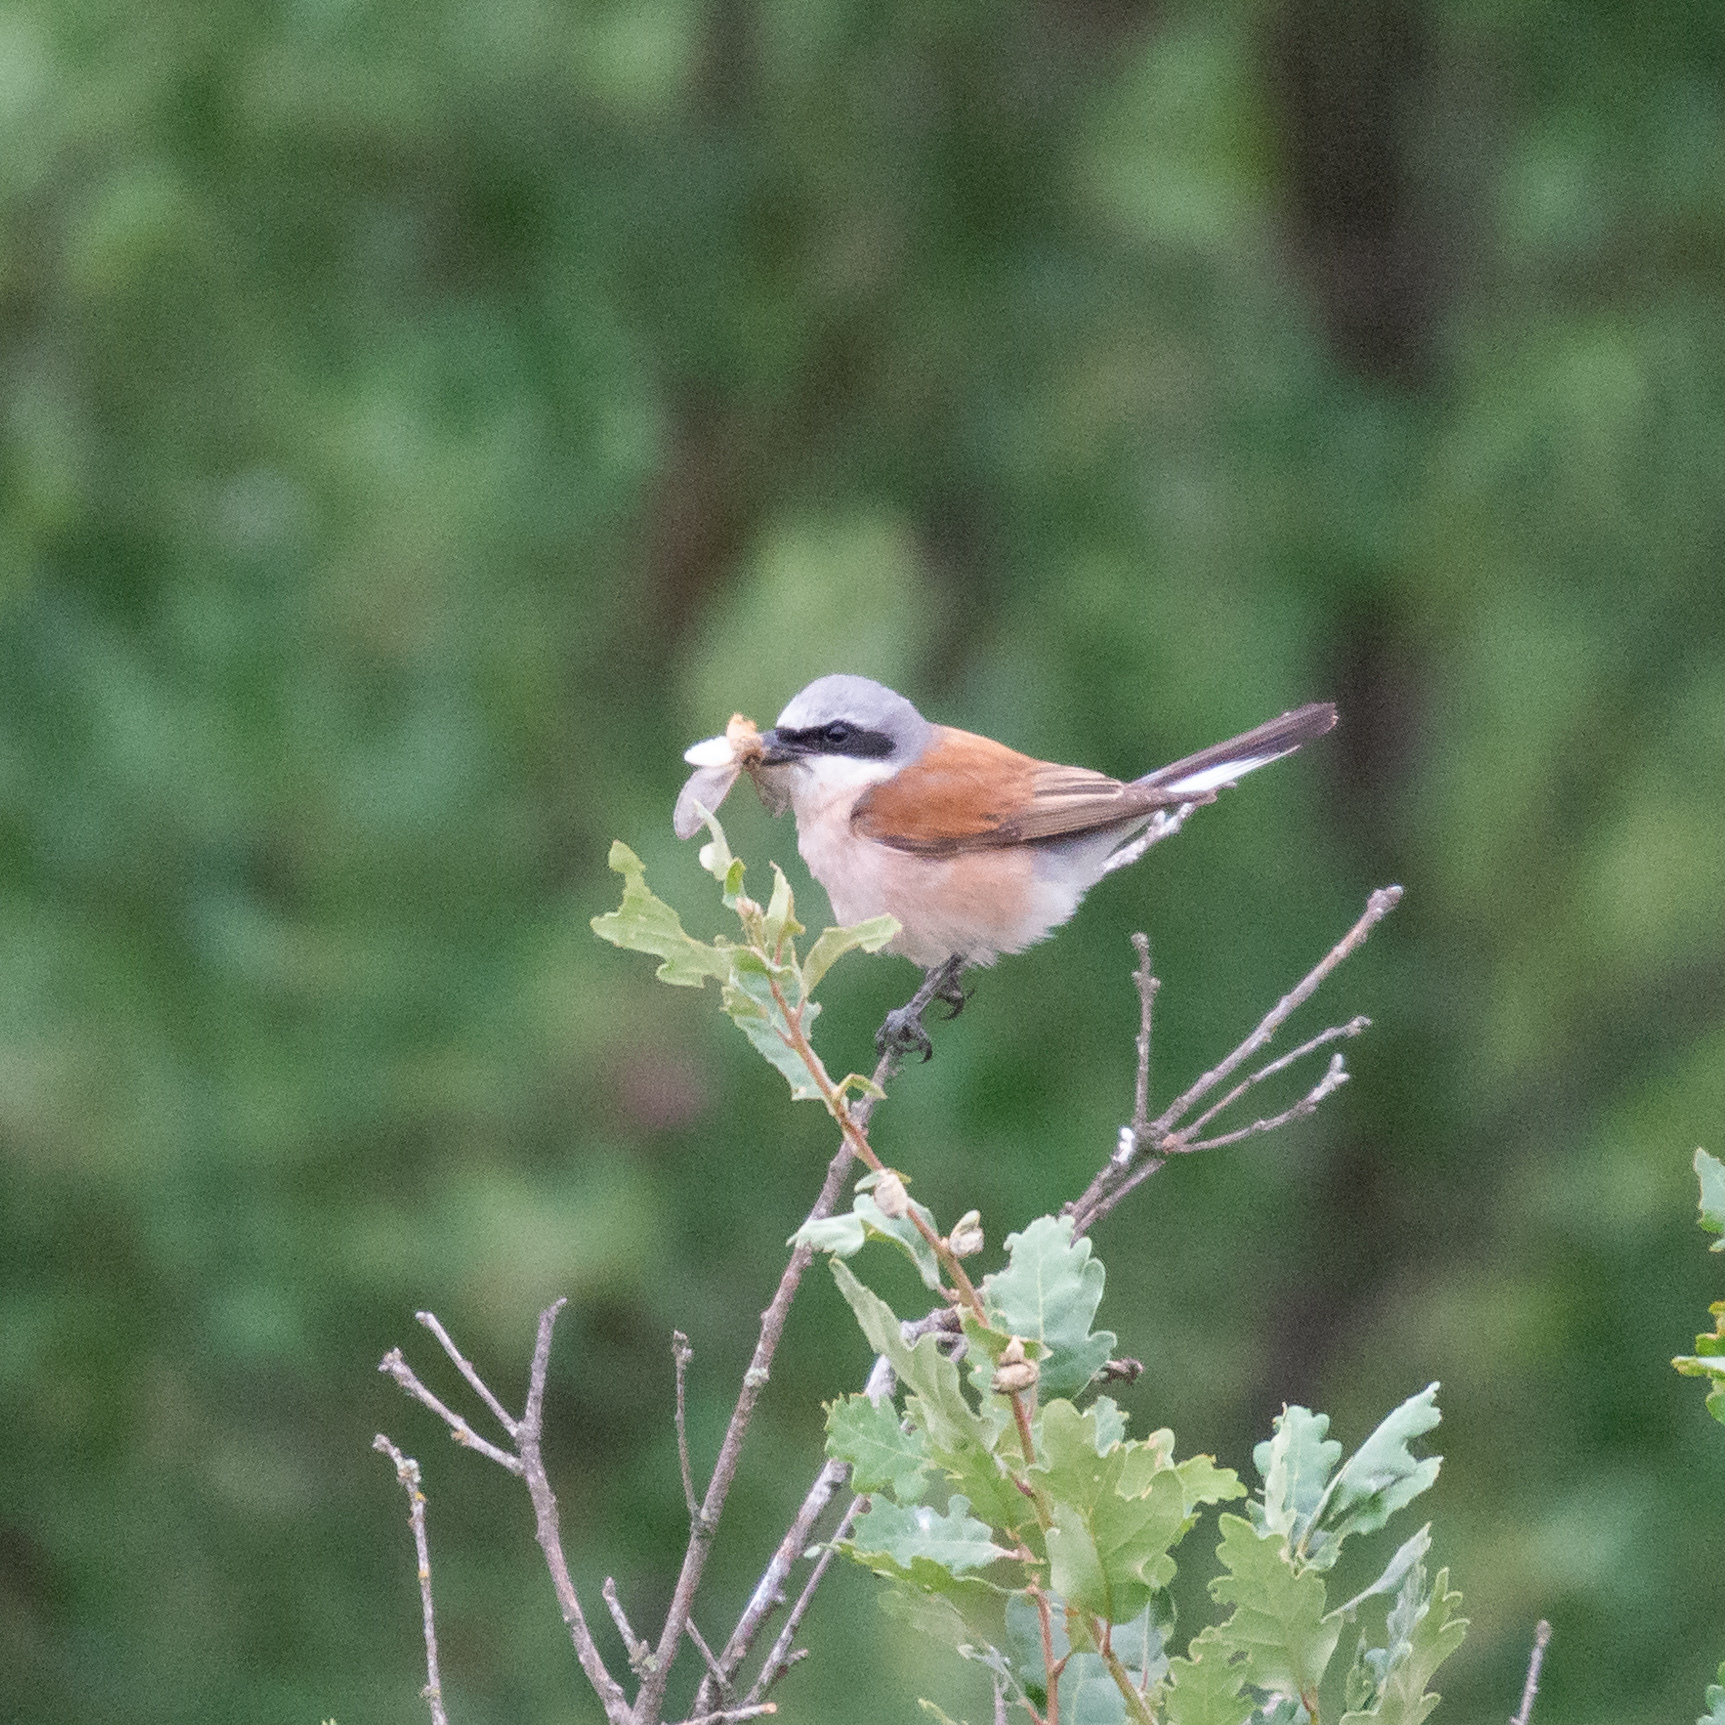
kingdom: Animalia
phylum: Chordata
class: Aves
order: Passeriformes
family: Laniidae
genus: Lanius
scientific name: Lanius collurio
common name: Red-backed shrike
